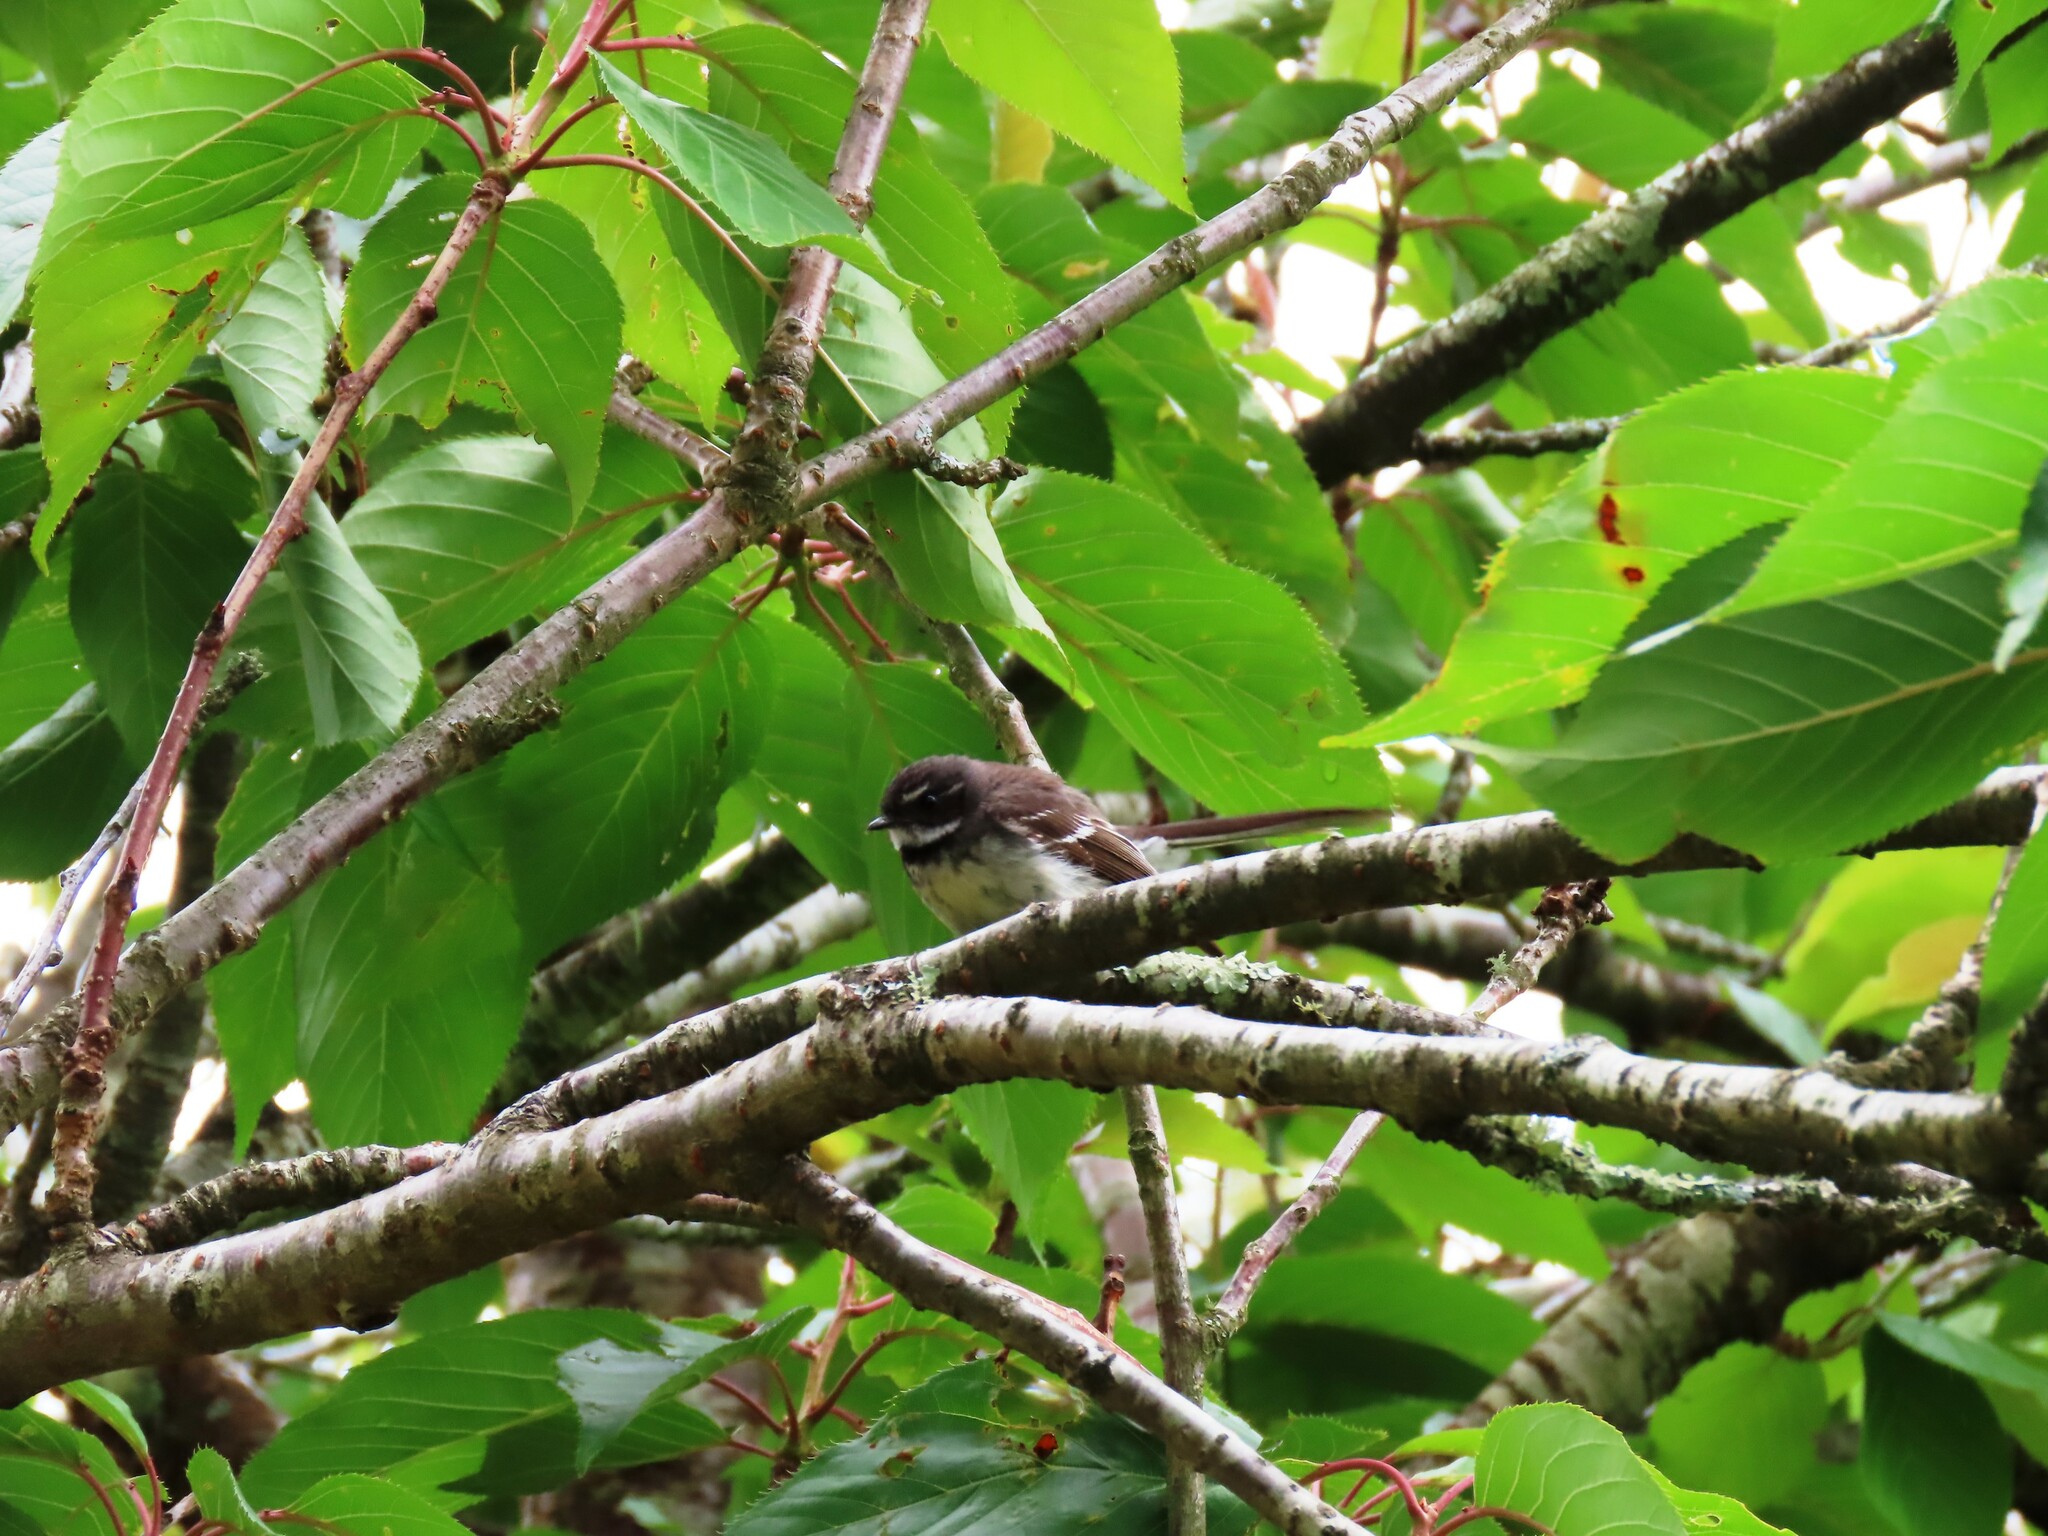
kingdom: Animalia
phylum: Chordata
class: Aves
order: Passeriformes
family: Rhipiduridae
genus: Rhipidura
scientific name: Rhipidura albiscapa
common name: Grey fantail
